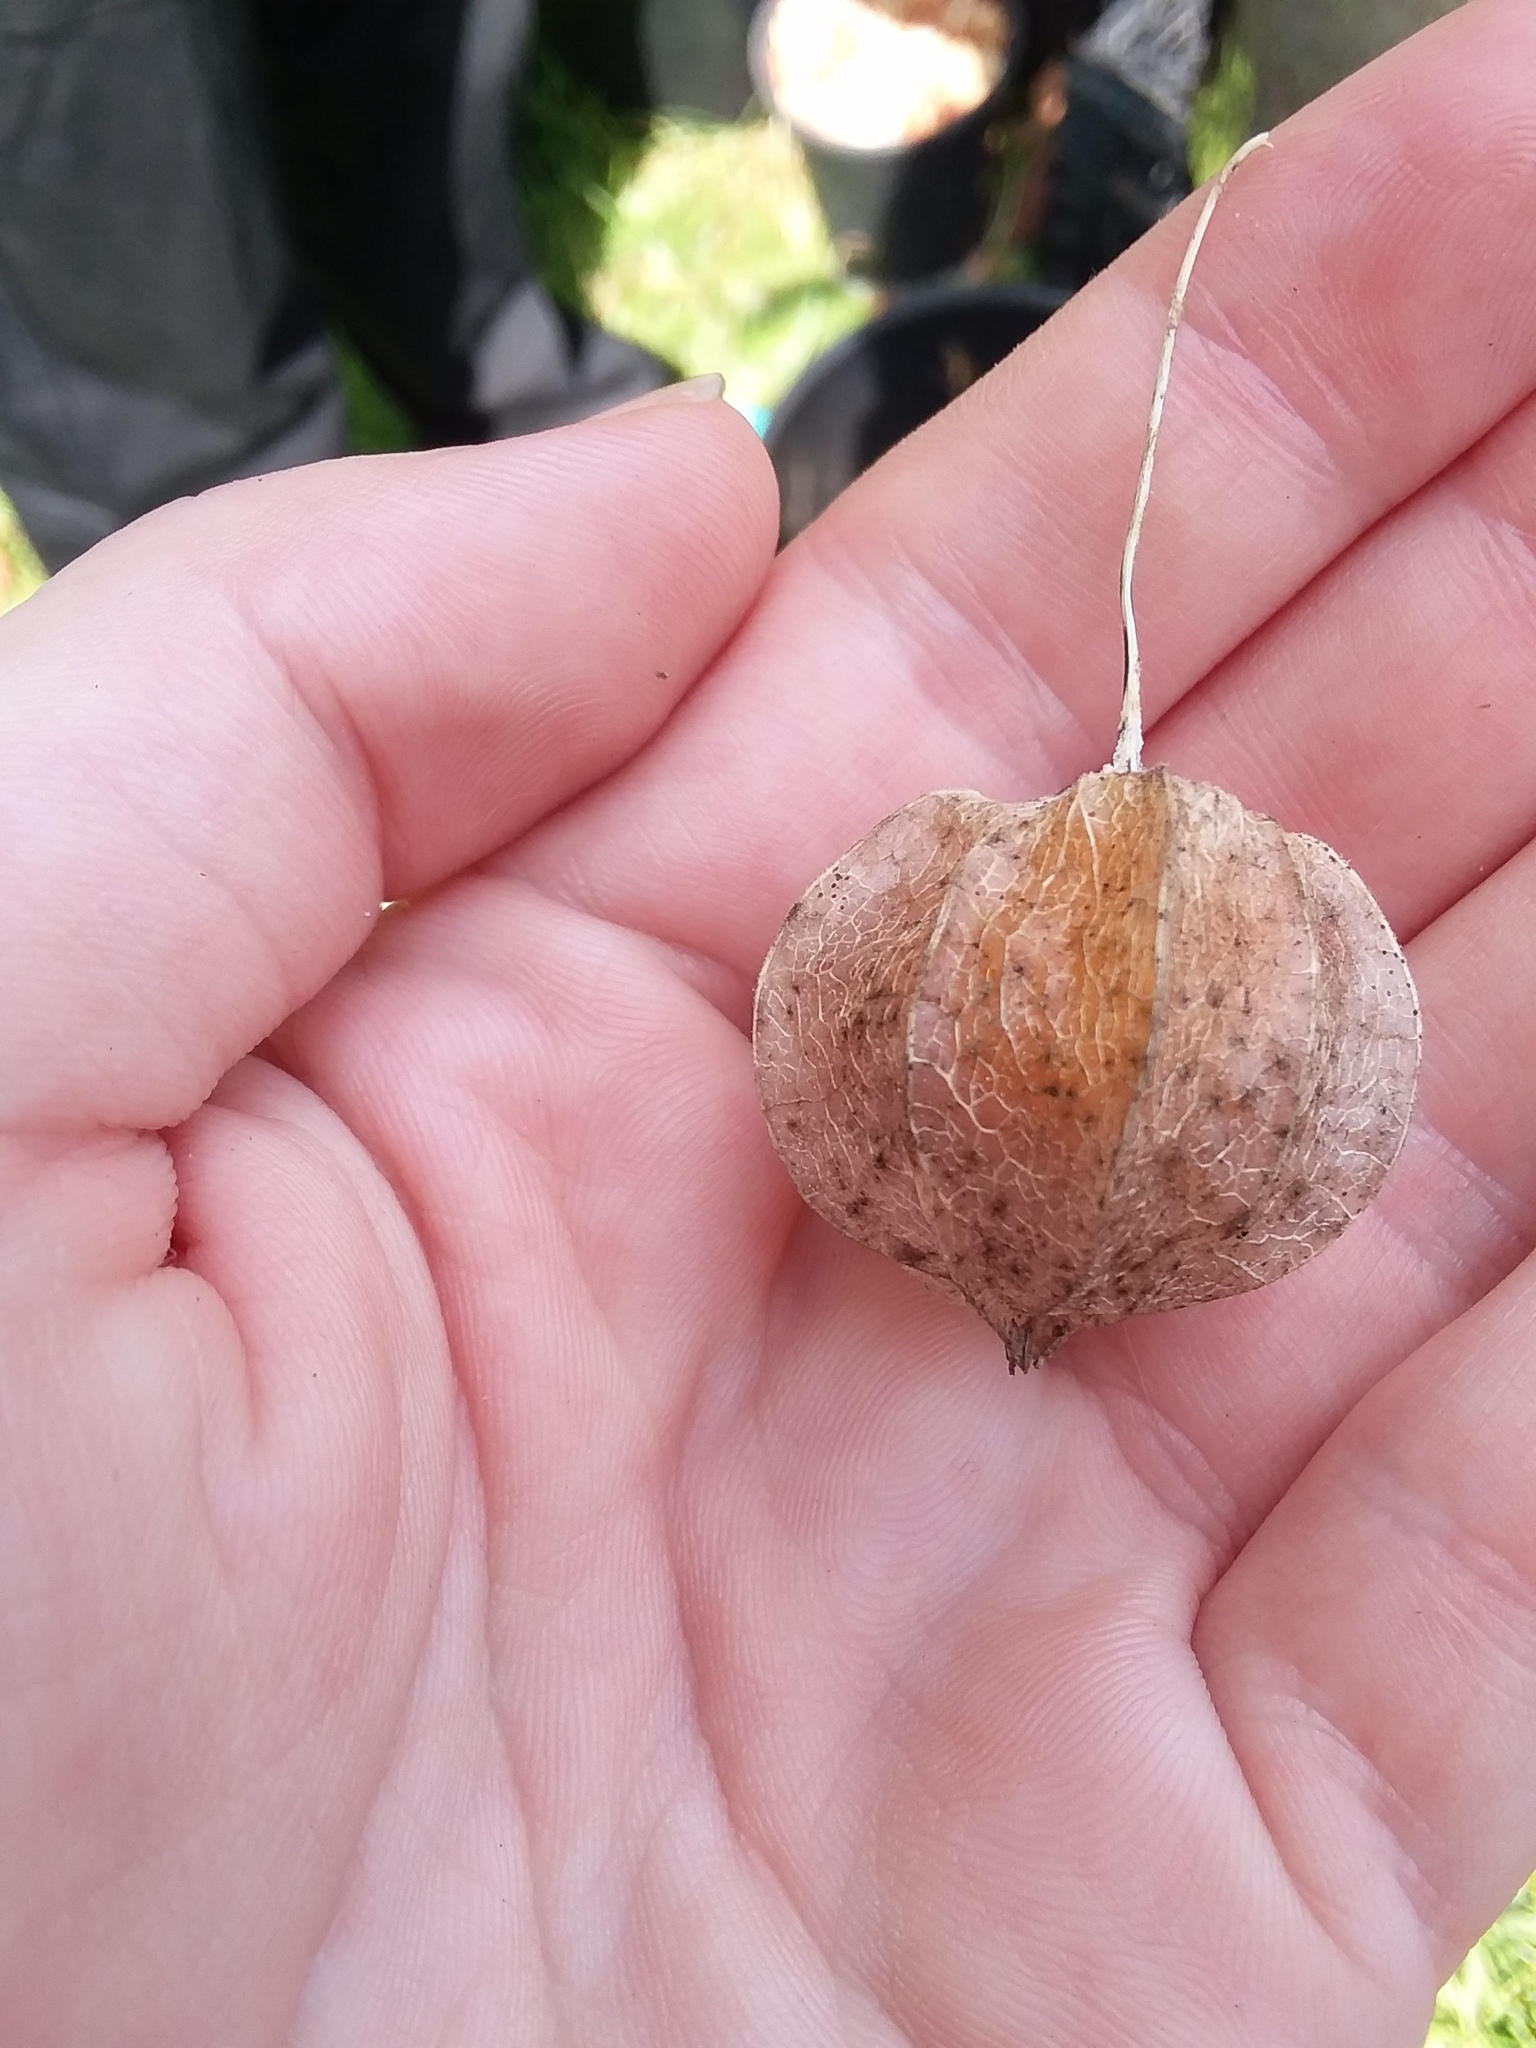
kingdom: Plantae
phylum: Tracheophyta
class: Magnoliopsida
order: Solanales
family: Solanaceae
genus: Physalis
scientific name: Physalis walteri
